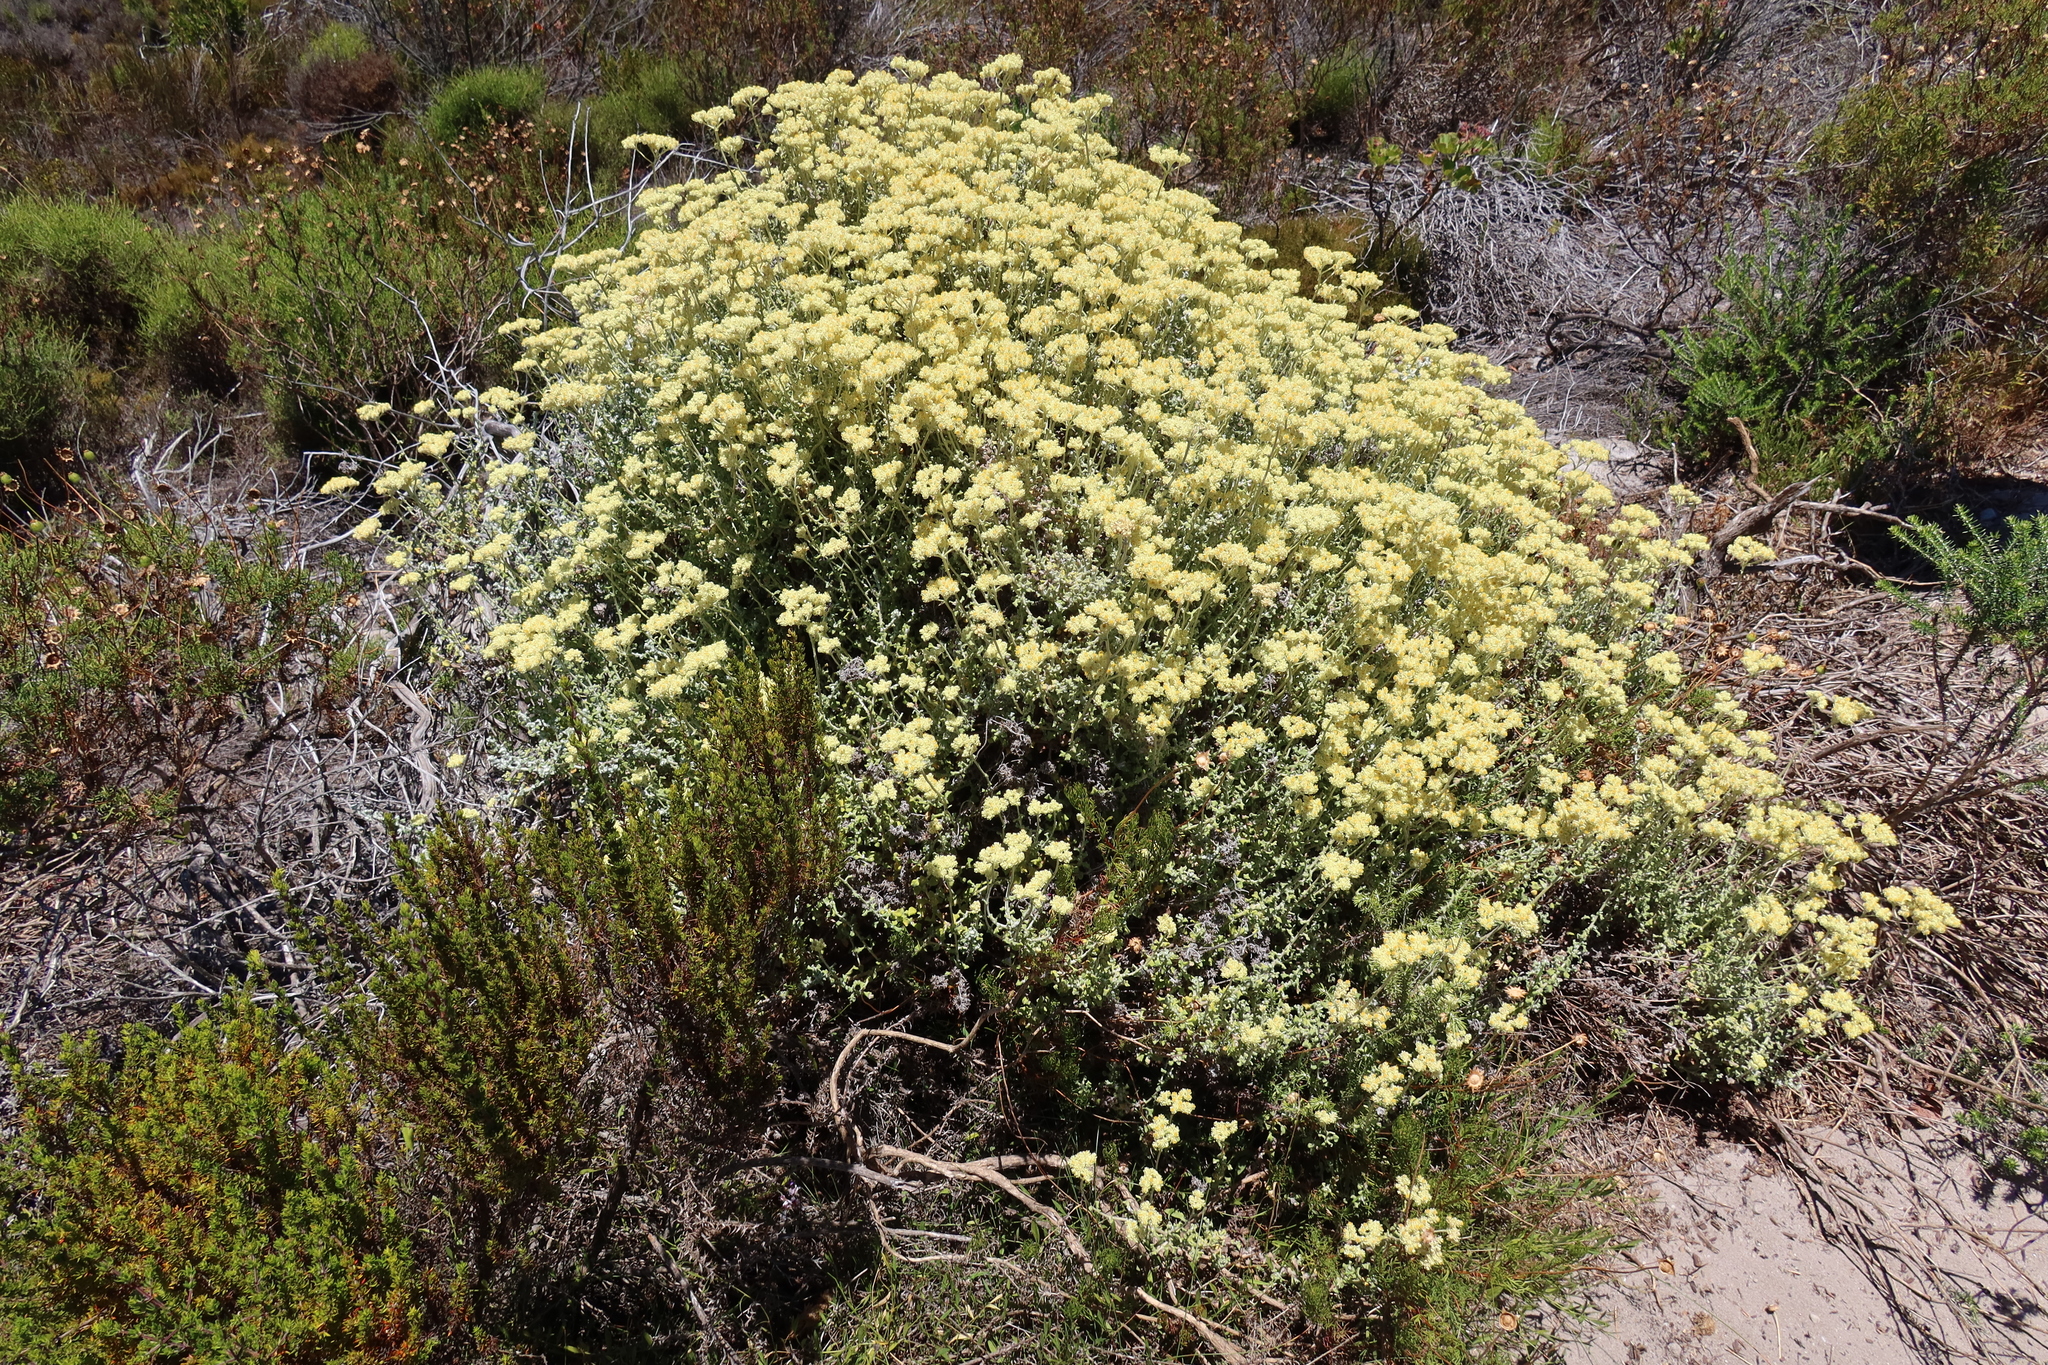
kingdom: Plantae
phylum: Tracheophyta
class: Magnoliopsida
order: Asterales
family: Asteraceae
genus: Helichrysum
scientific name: Helichrysum patulum
